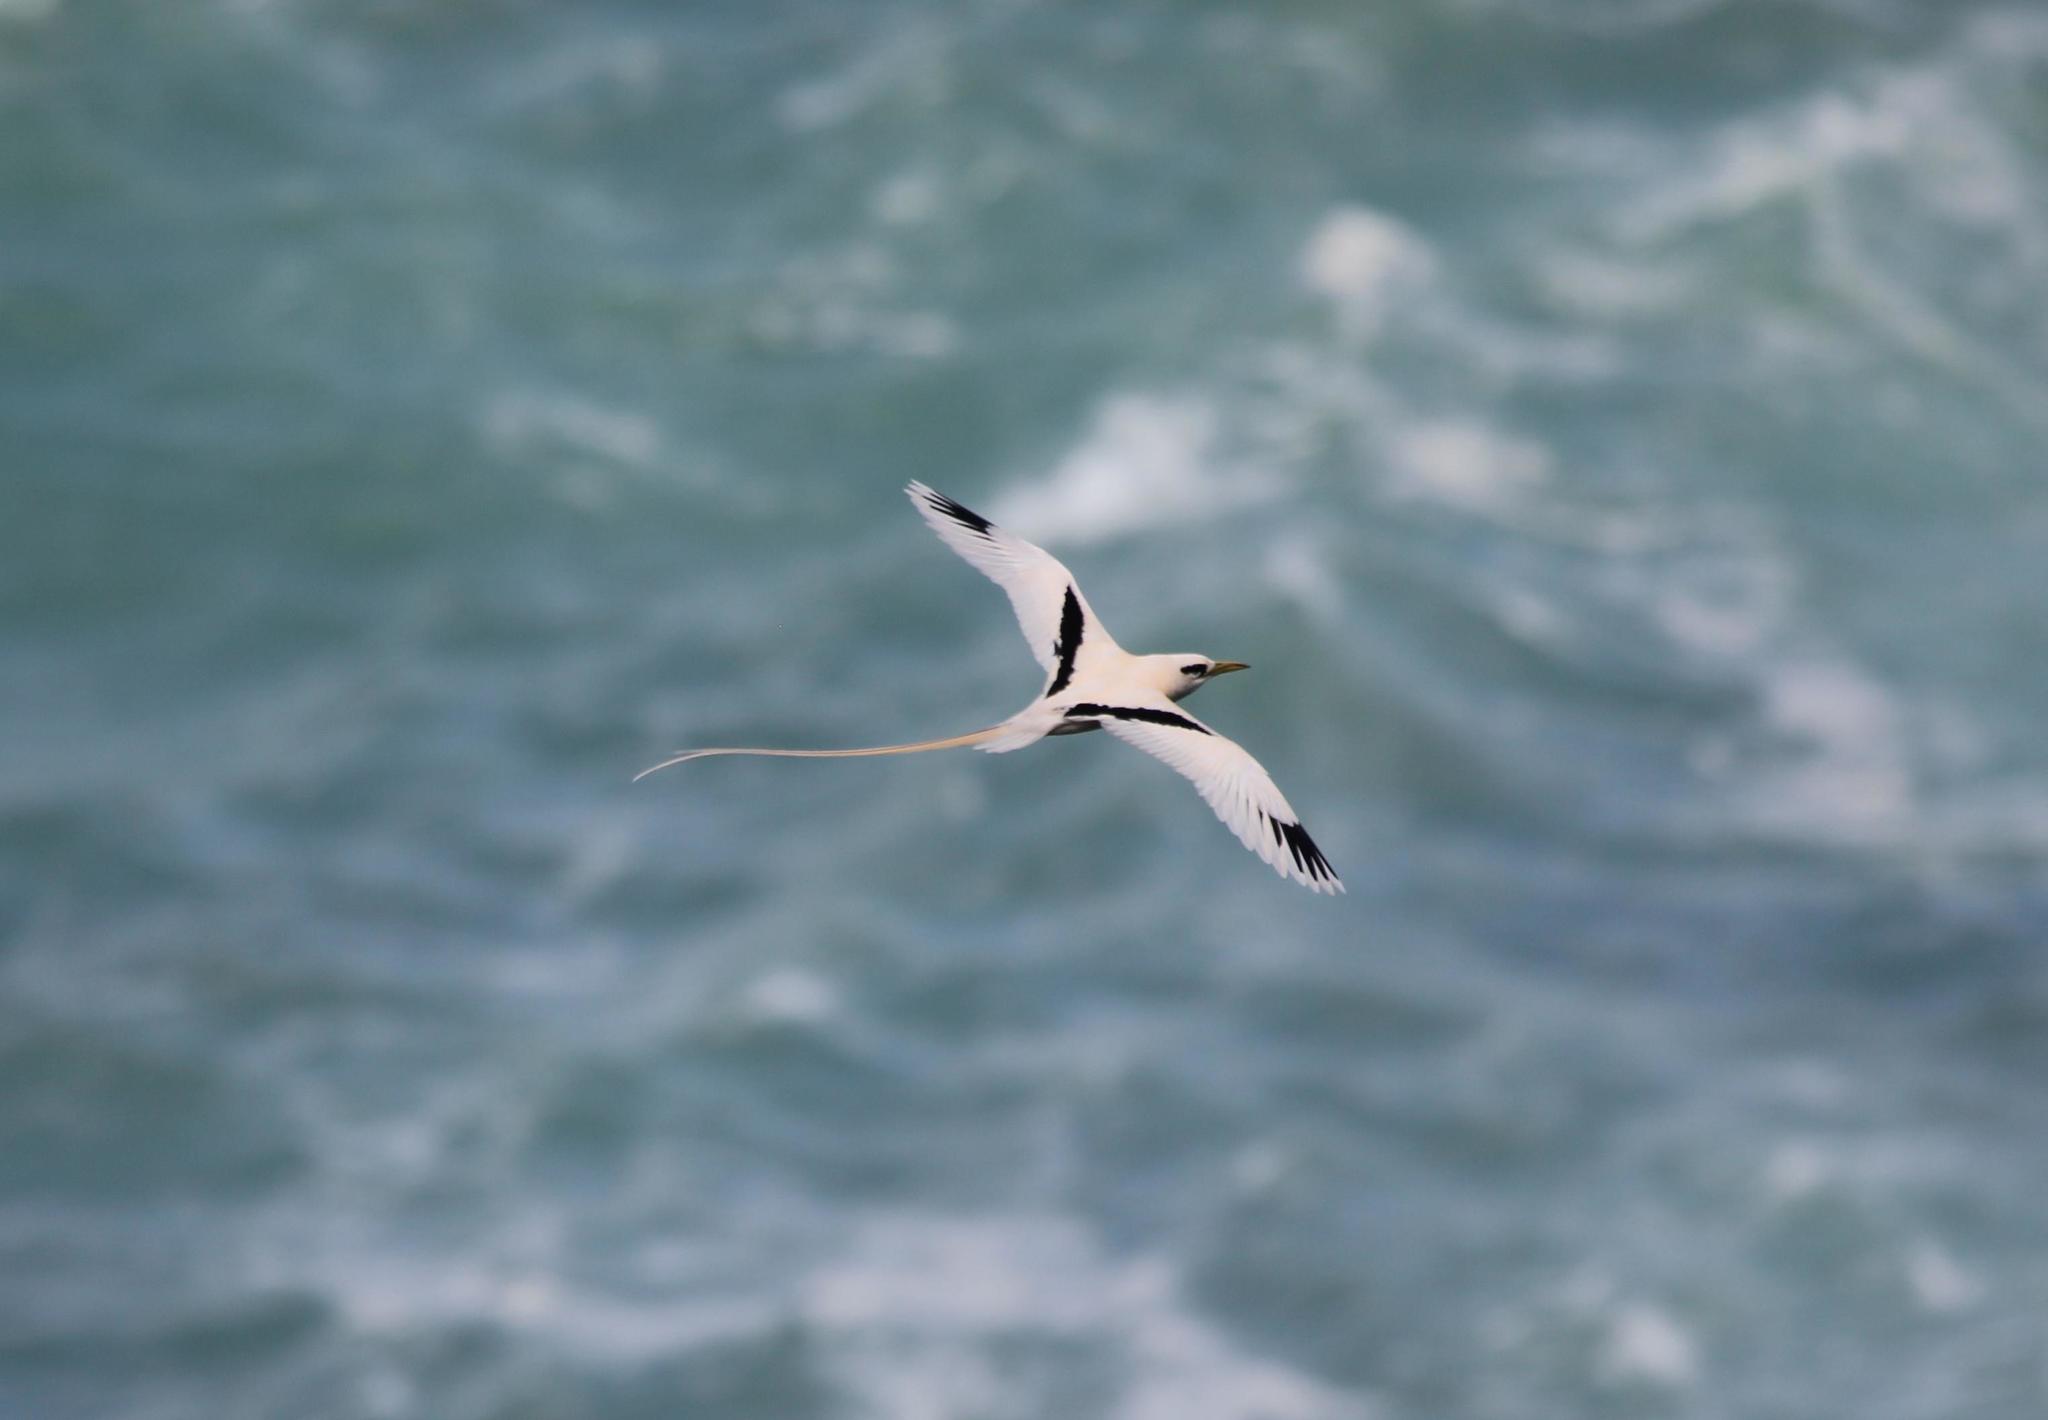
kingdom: Animalia
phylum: Chordata
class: Aves
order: Phaethontiformes
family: Phaethontidae
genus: Phaethon
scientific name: Phaethon lepturus
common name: White-tailed tropicbird
